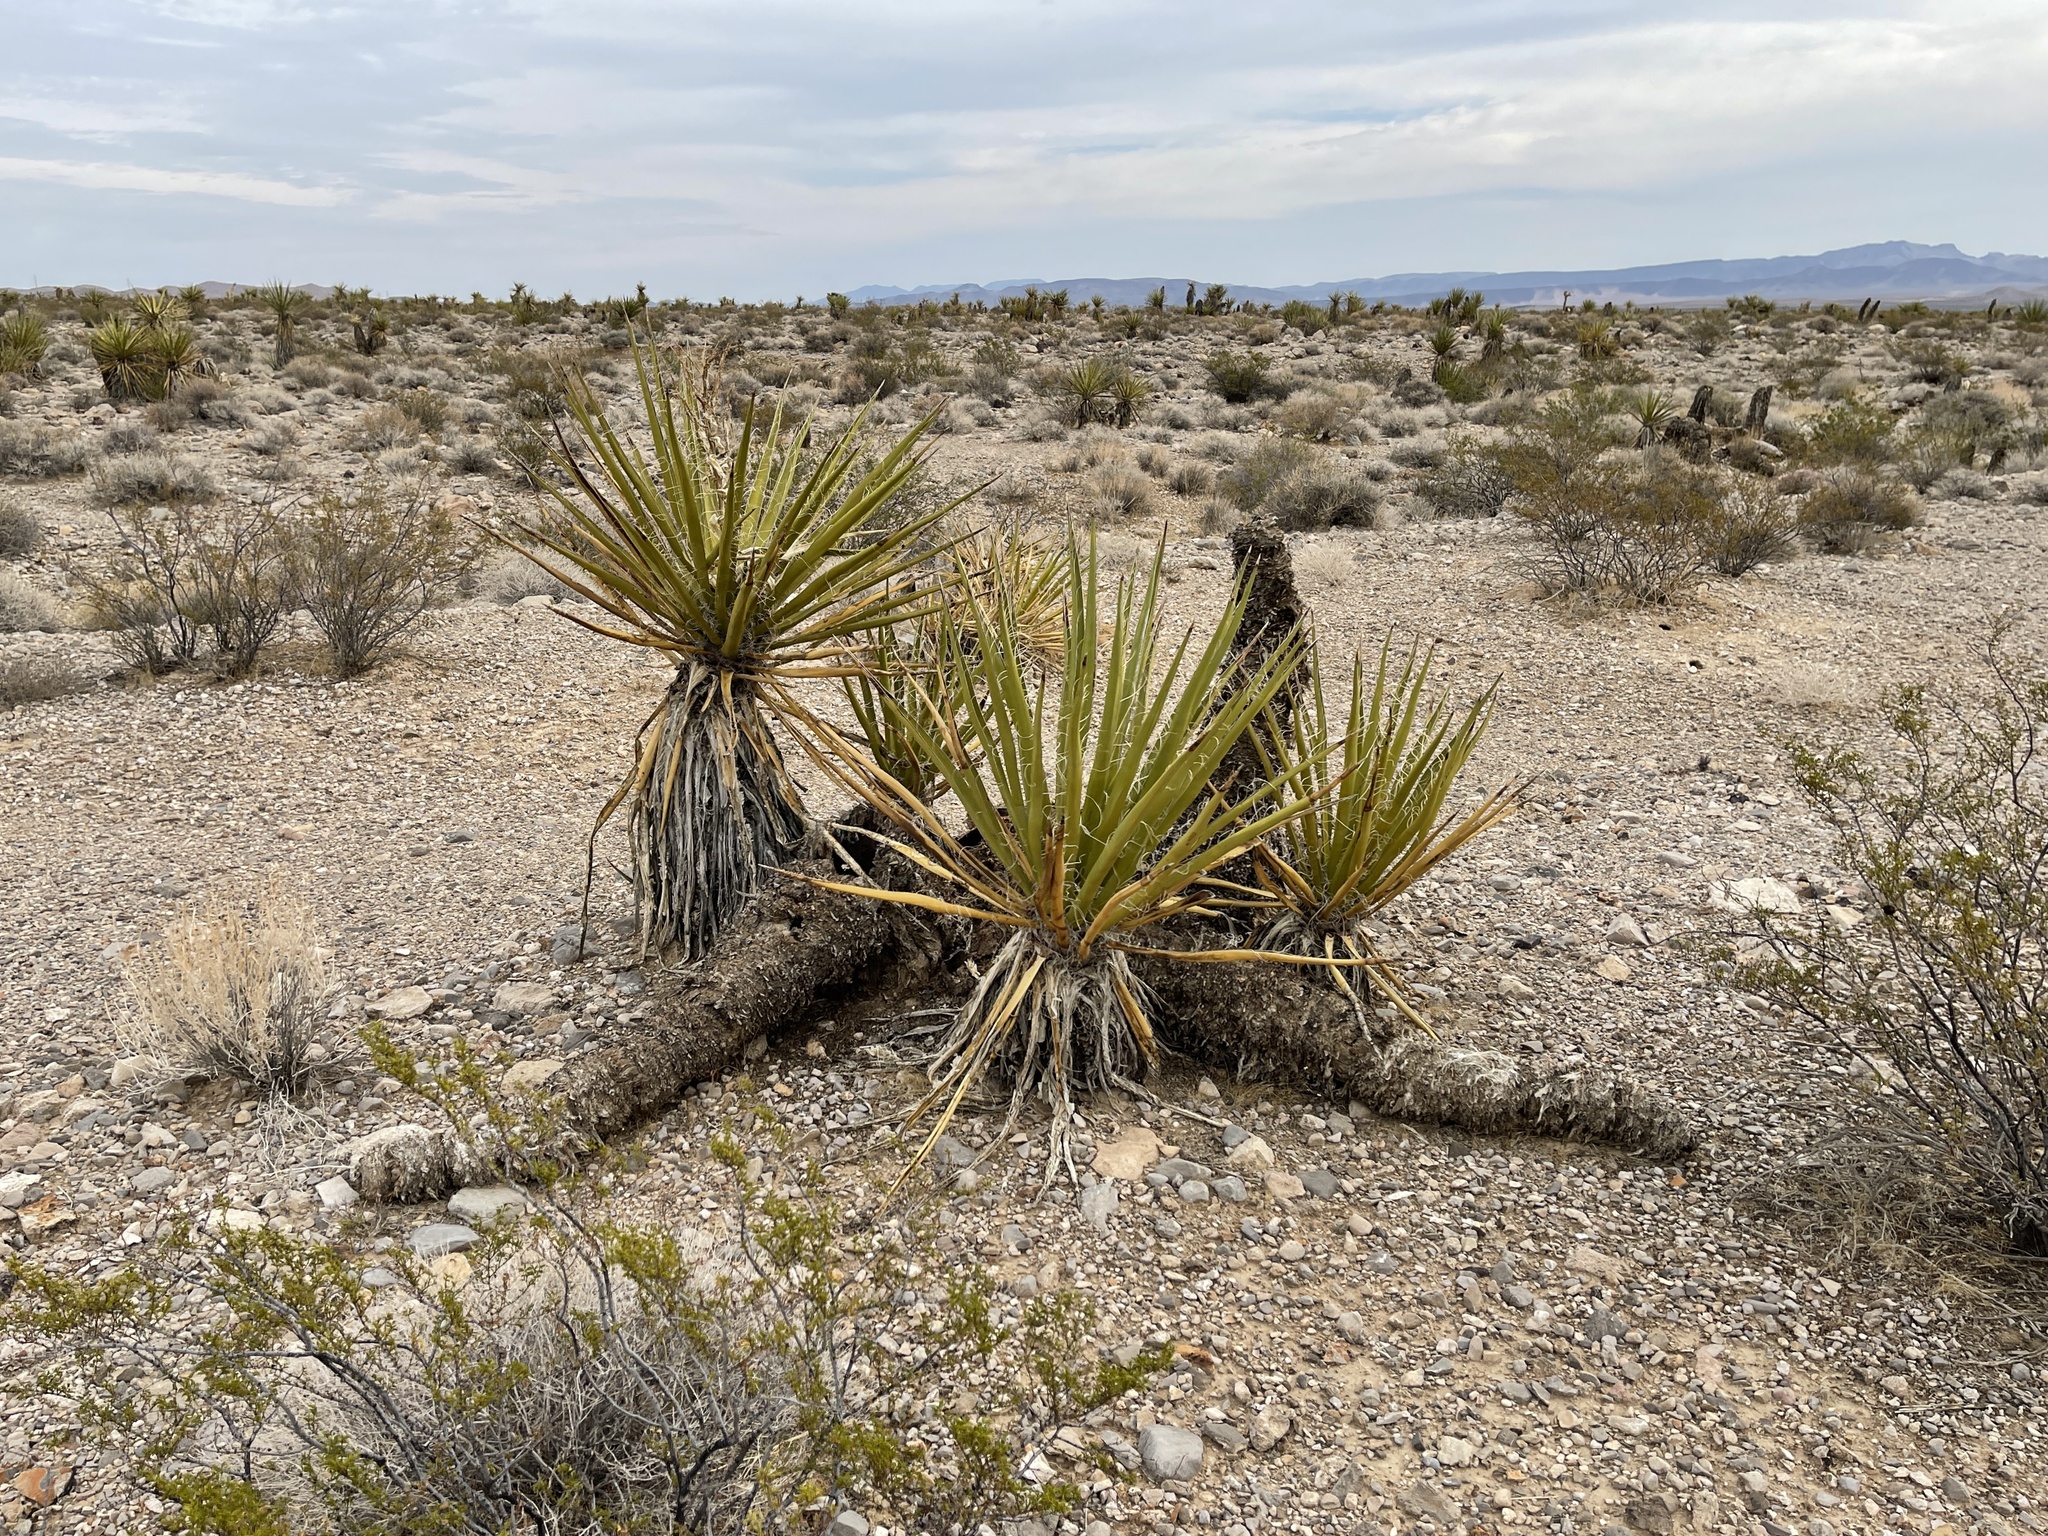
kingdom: Plantae
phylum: Tracheophyta
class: Liliopsida
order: Asparagales
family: Asparagaceae
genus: Yucca
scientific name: Yucca schidigera
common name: Mojave yucca
